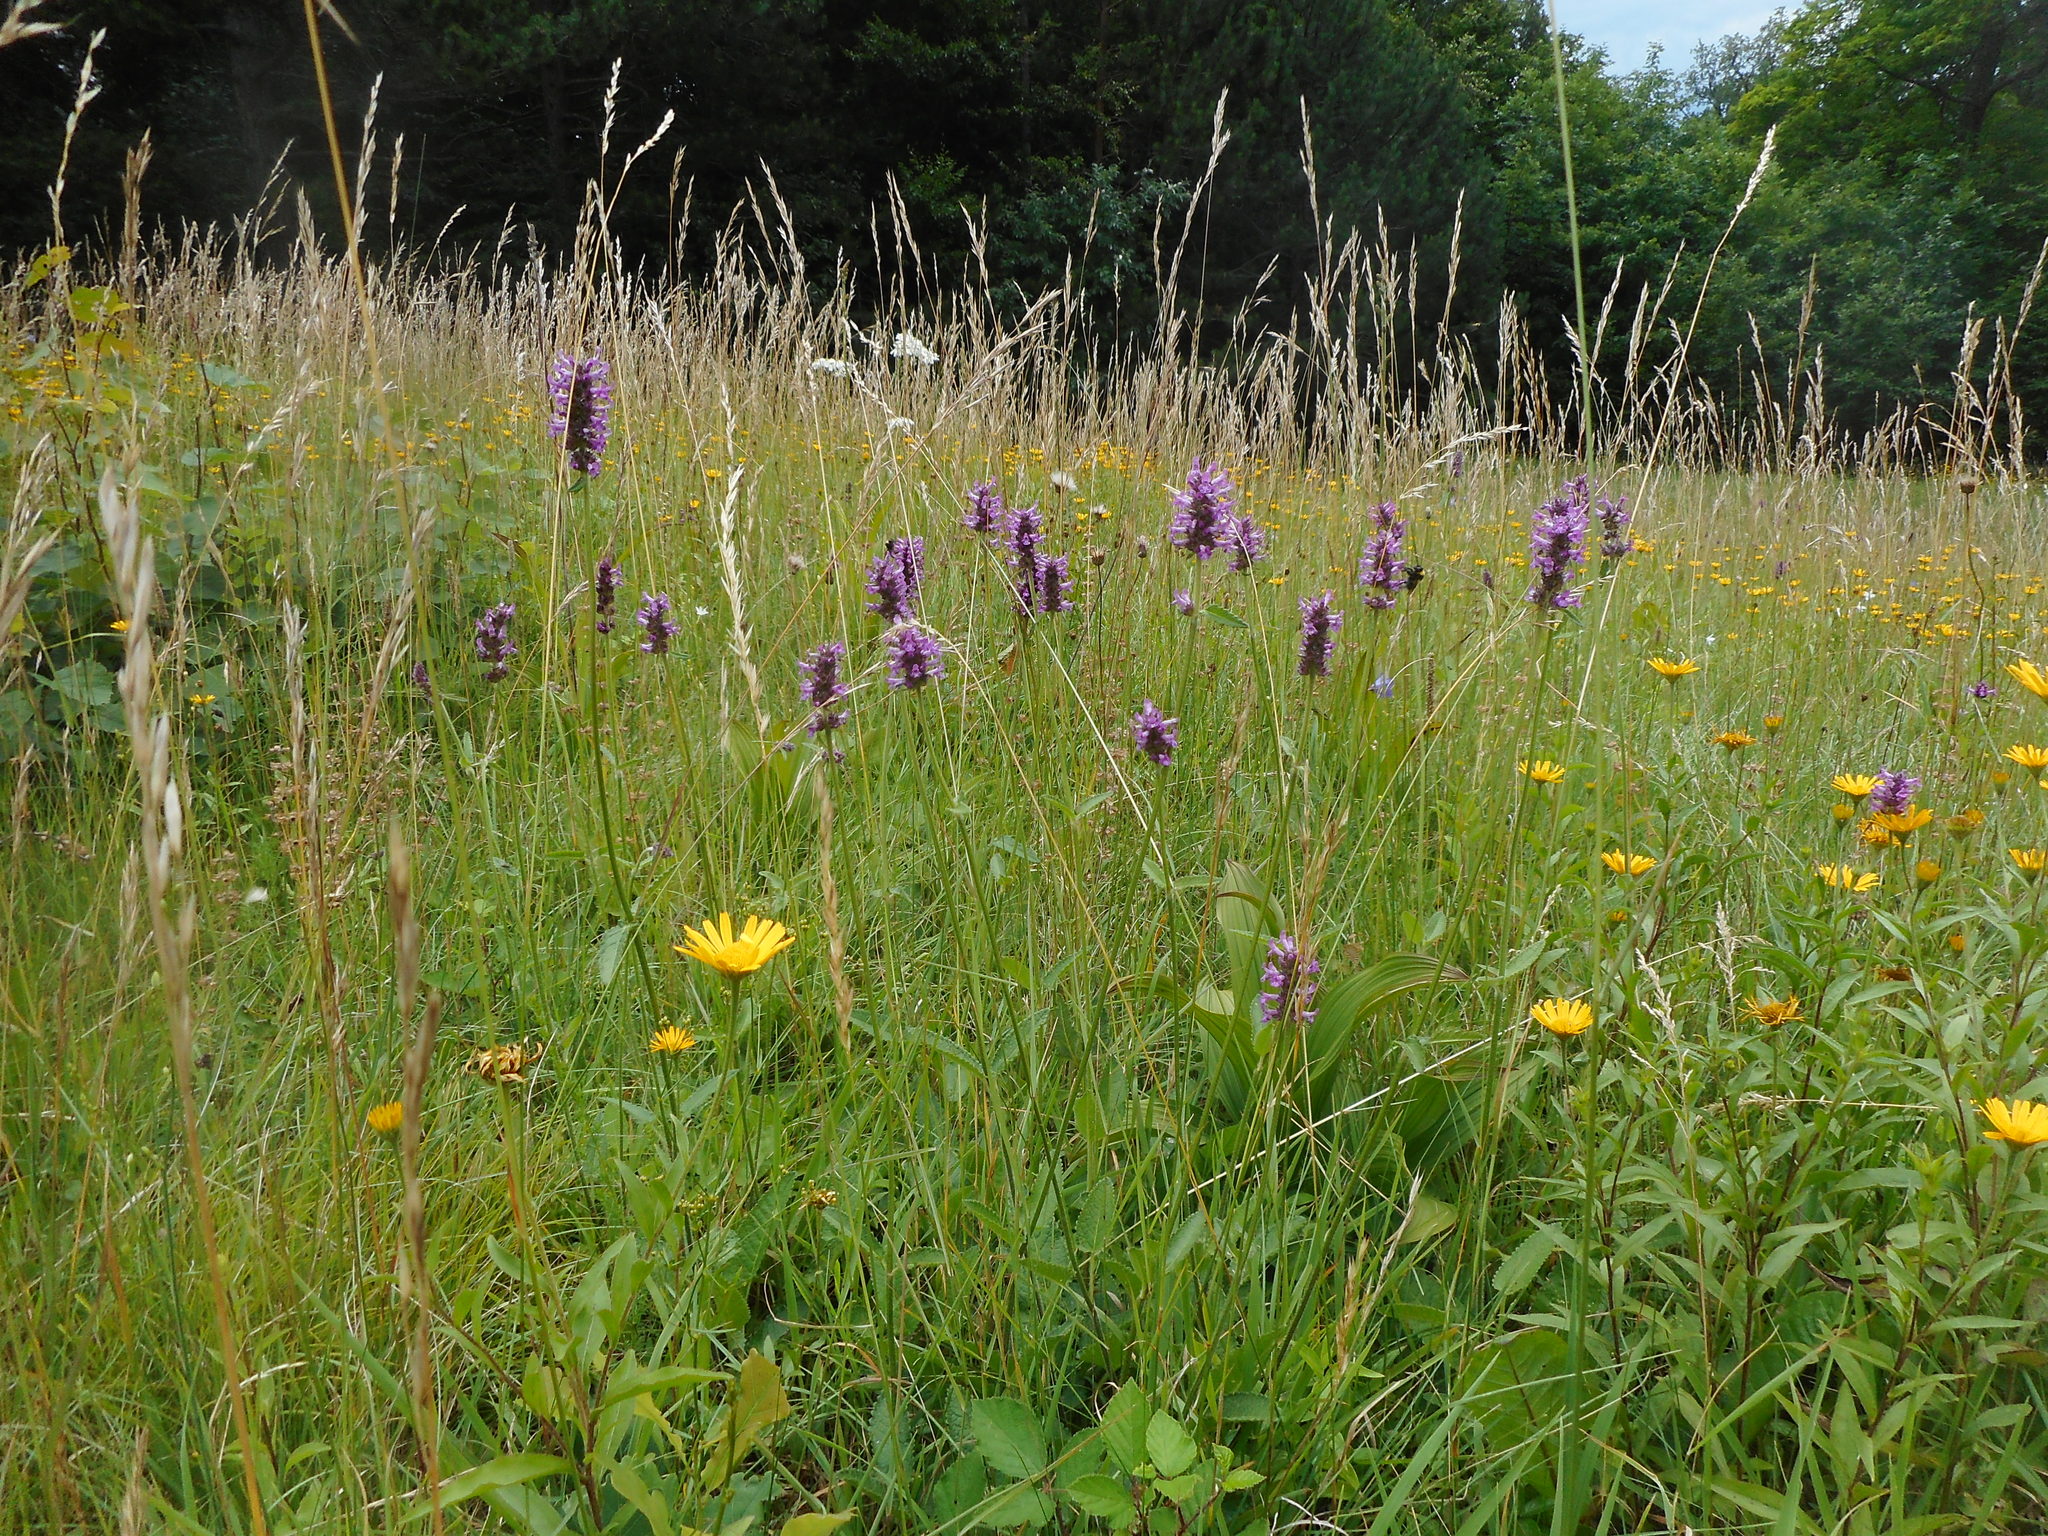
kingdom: Plantae
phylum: Tracheophyta
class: Magnoliopsida
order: Lamiales
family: Lamiaceae
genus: Betonica
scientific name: Betonica officinalis
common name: Bishop's-wort
